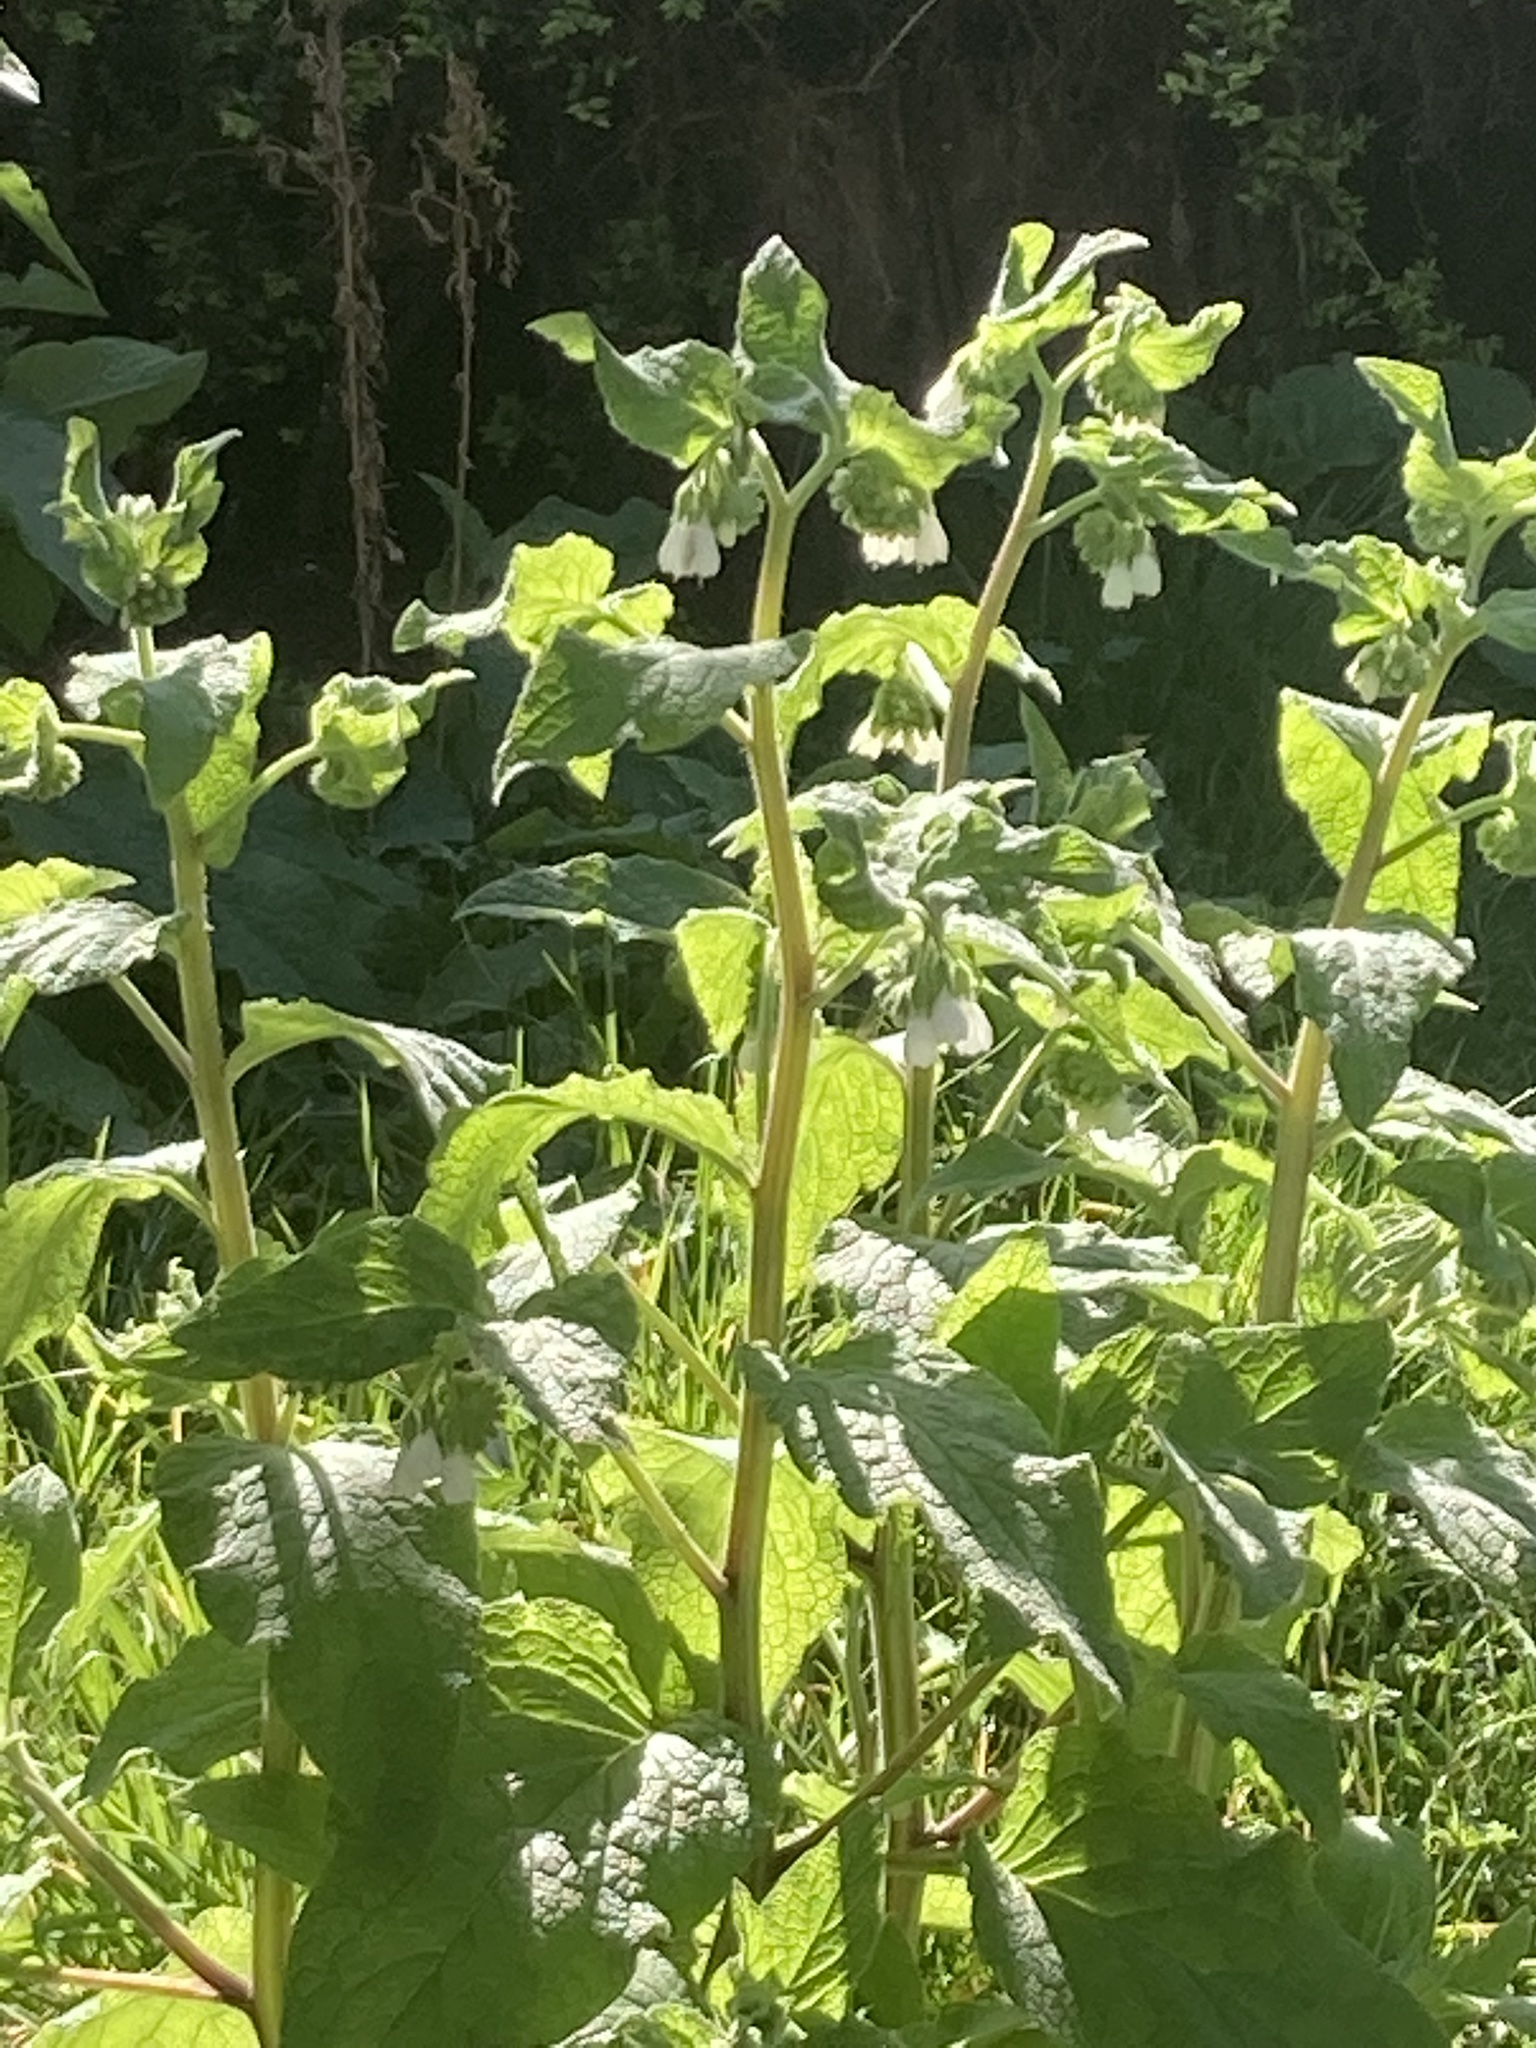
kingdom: Plantae
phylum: Tracheophyta
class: Magnoliopsida
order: Boraginales
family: Boraginaceae
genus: Symphytum
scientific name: Symphytum orientale
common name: White comfrey
